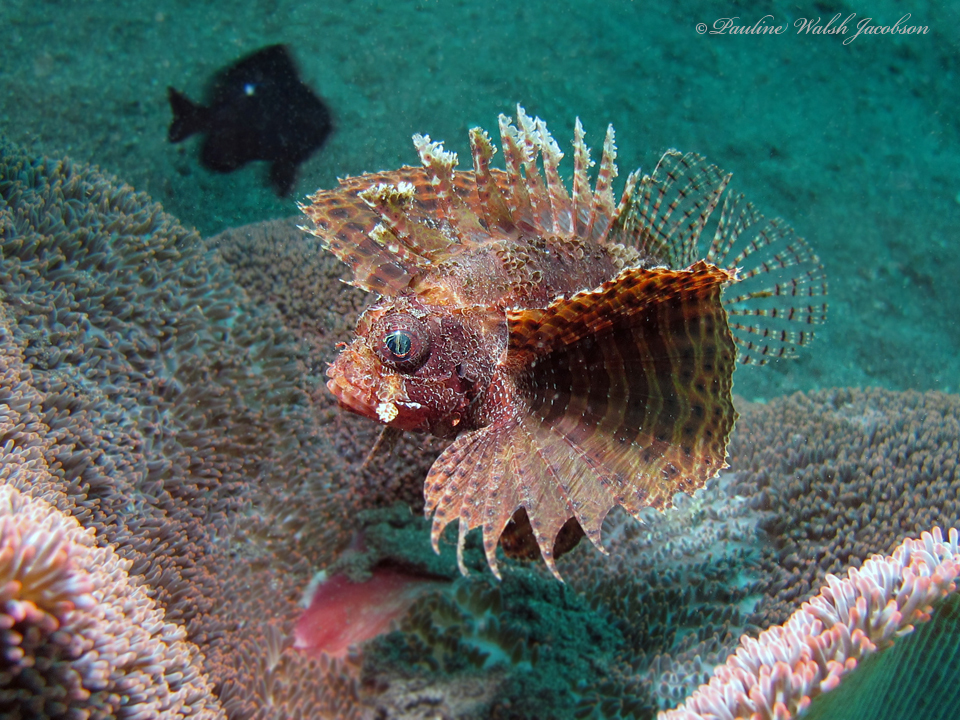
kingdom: Animalia
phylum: Chordata
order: Scorpaeniformes
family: Scorpaenidae
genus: Dendrochirus
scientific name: Dendrochirus brachypterus
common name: Shortfin turkeyfish
